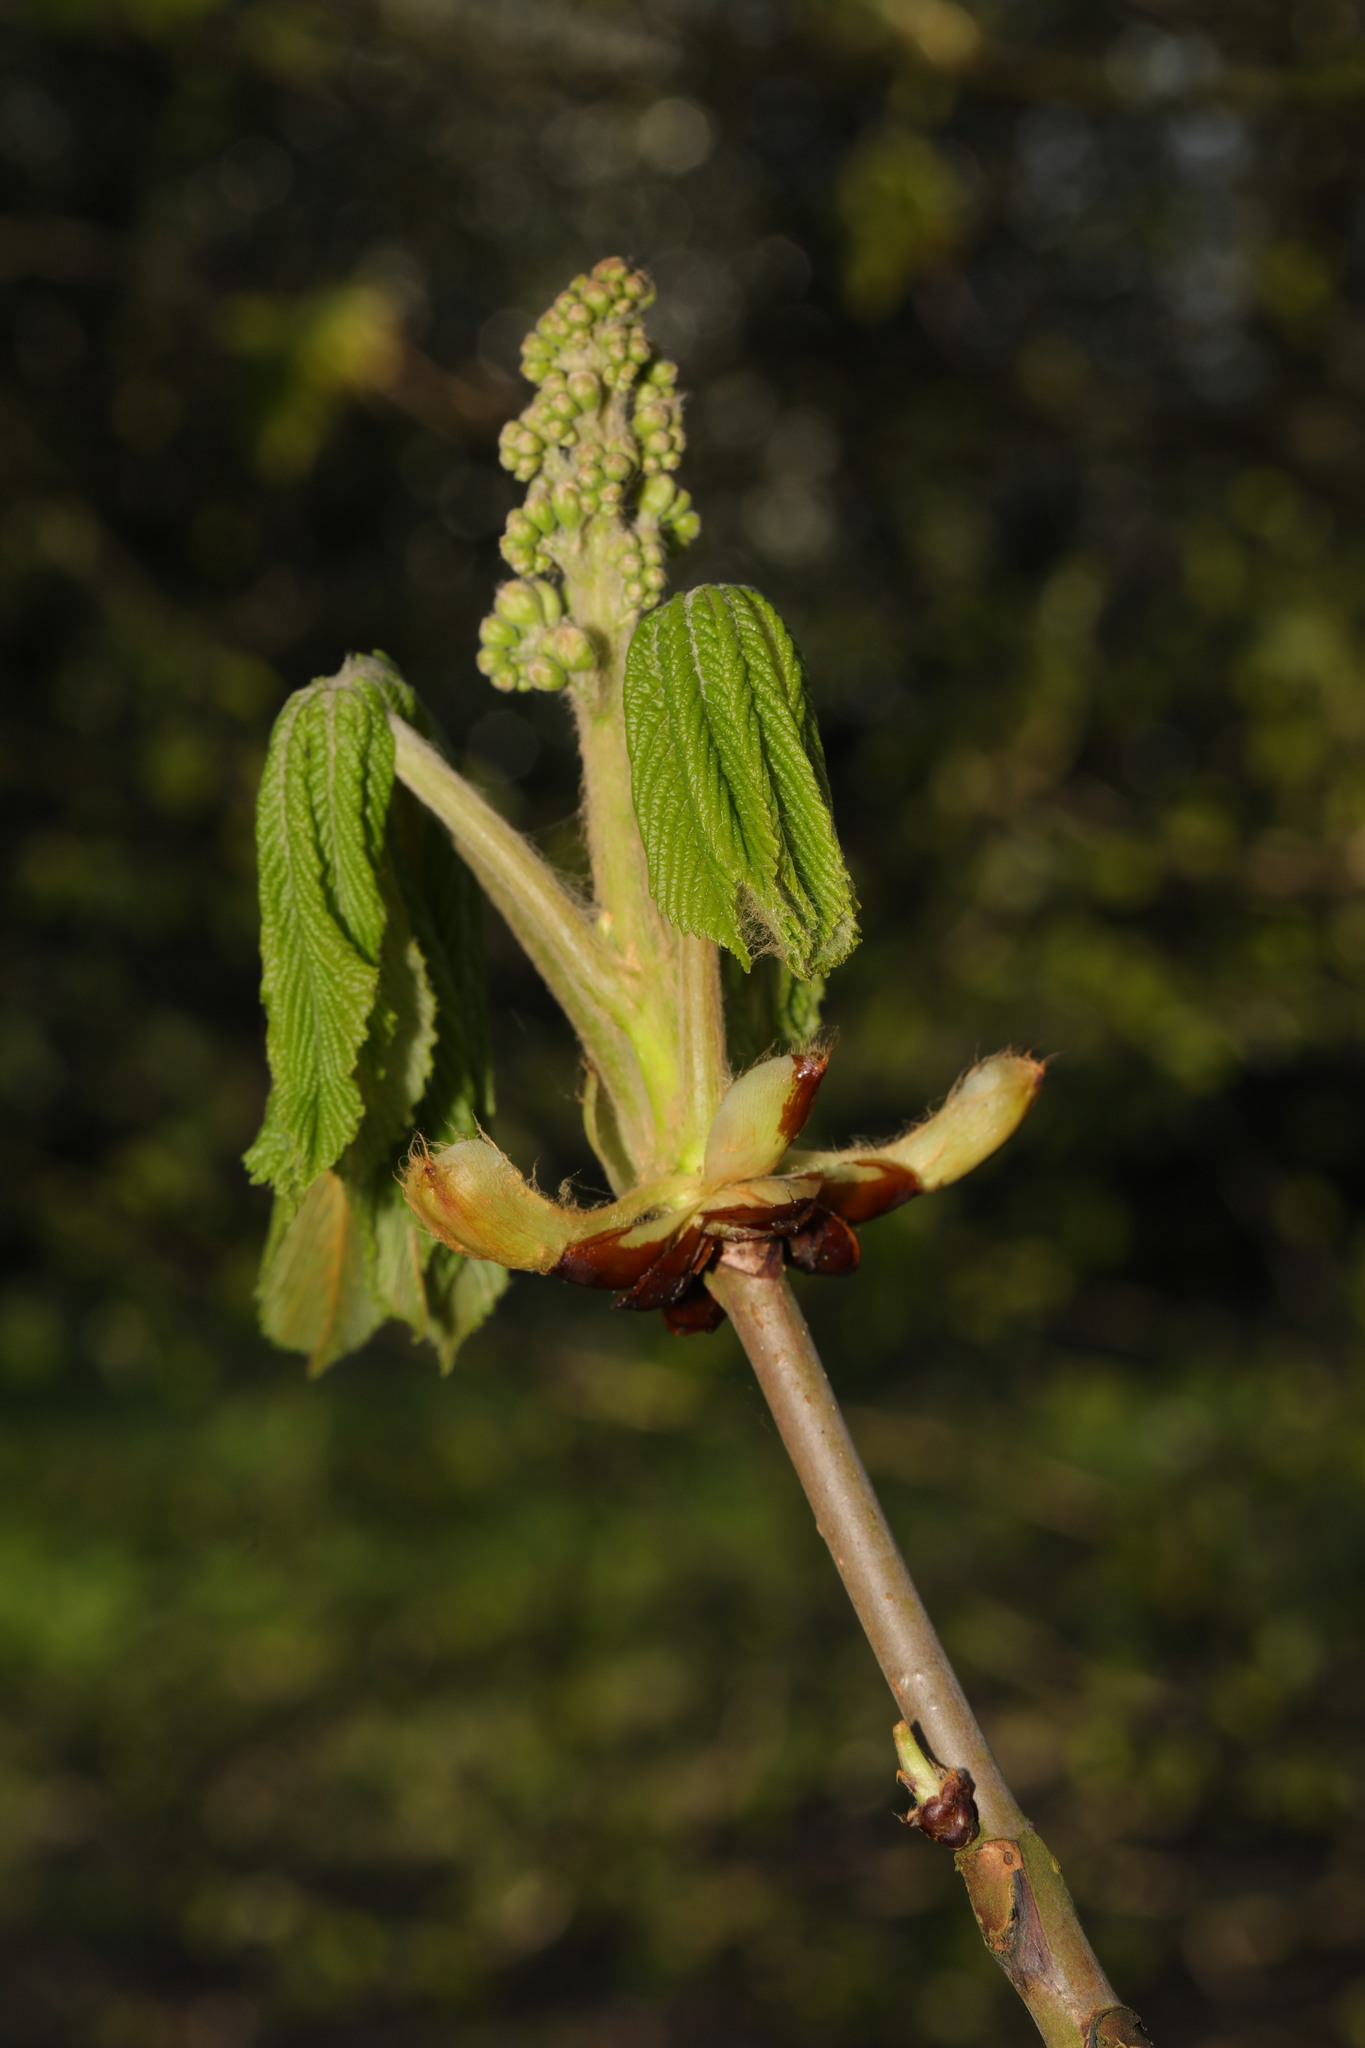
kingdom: Plantae
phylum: Tracheophyta
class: Magnoliopsida
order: Sapindales
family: Sapindaceae
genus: Aesculus
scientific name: Aesculus hippocastanum
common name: Horse-chestnut
